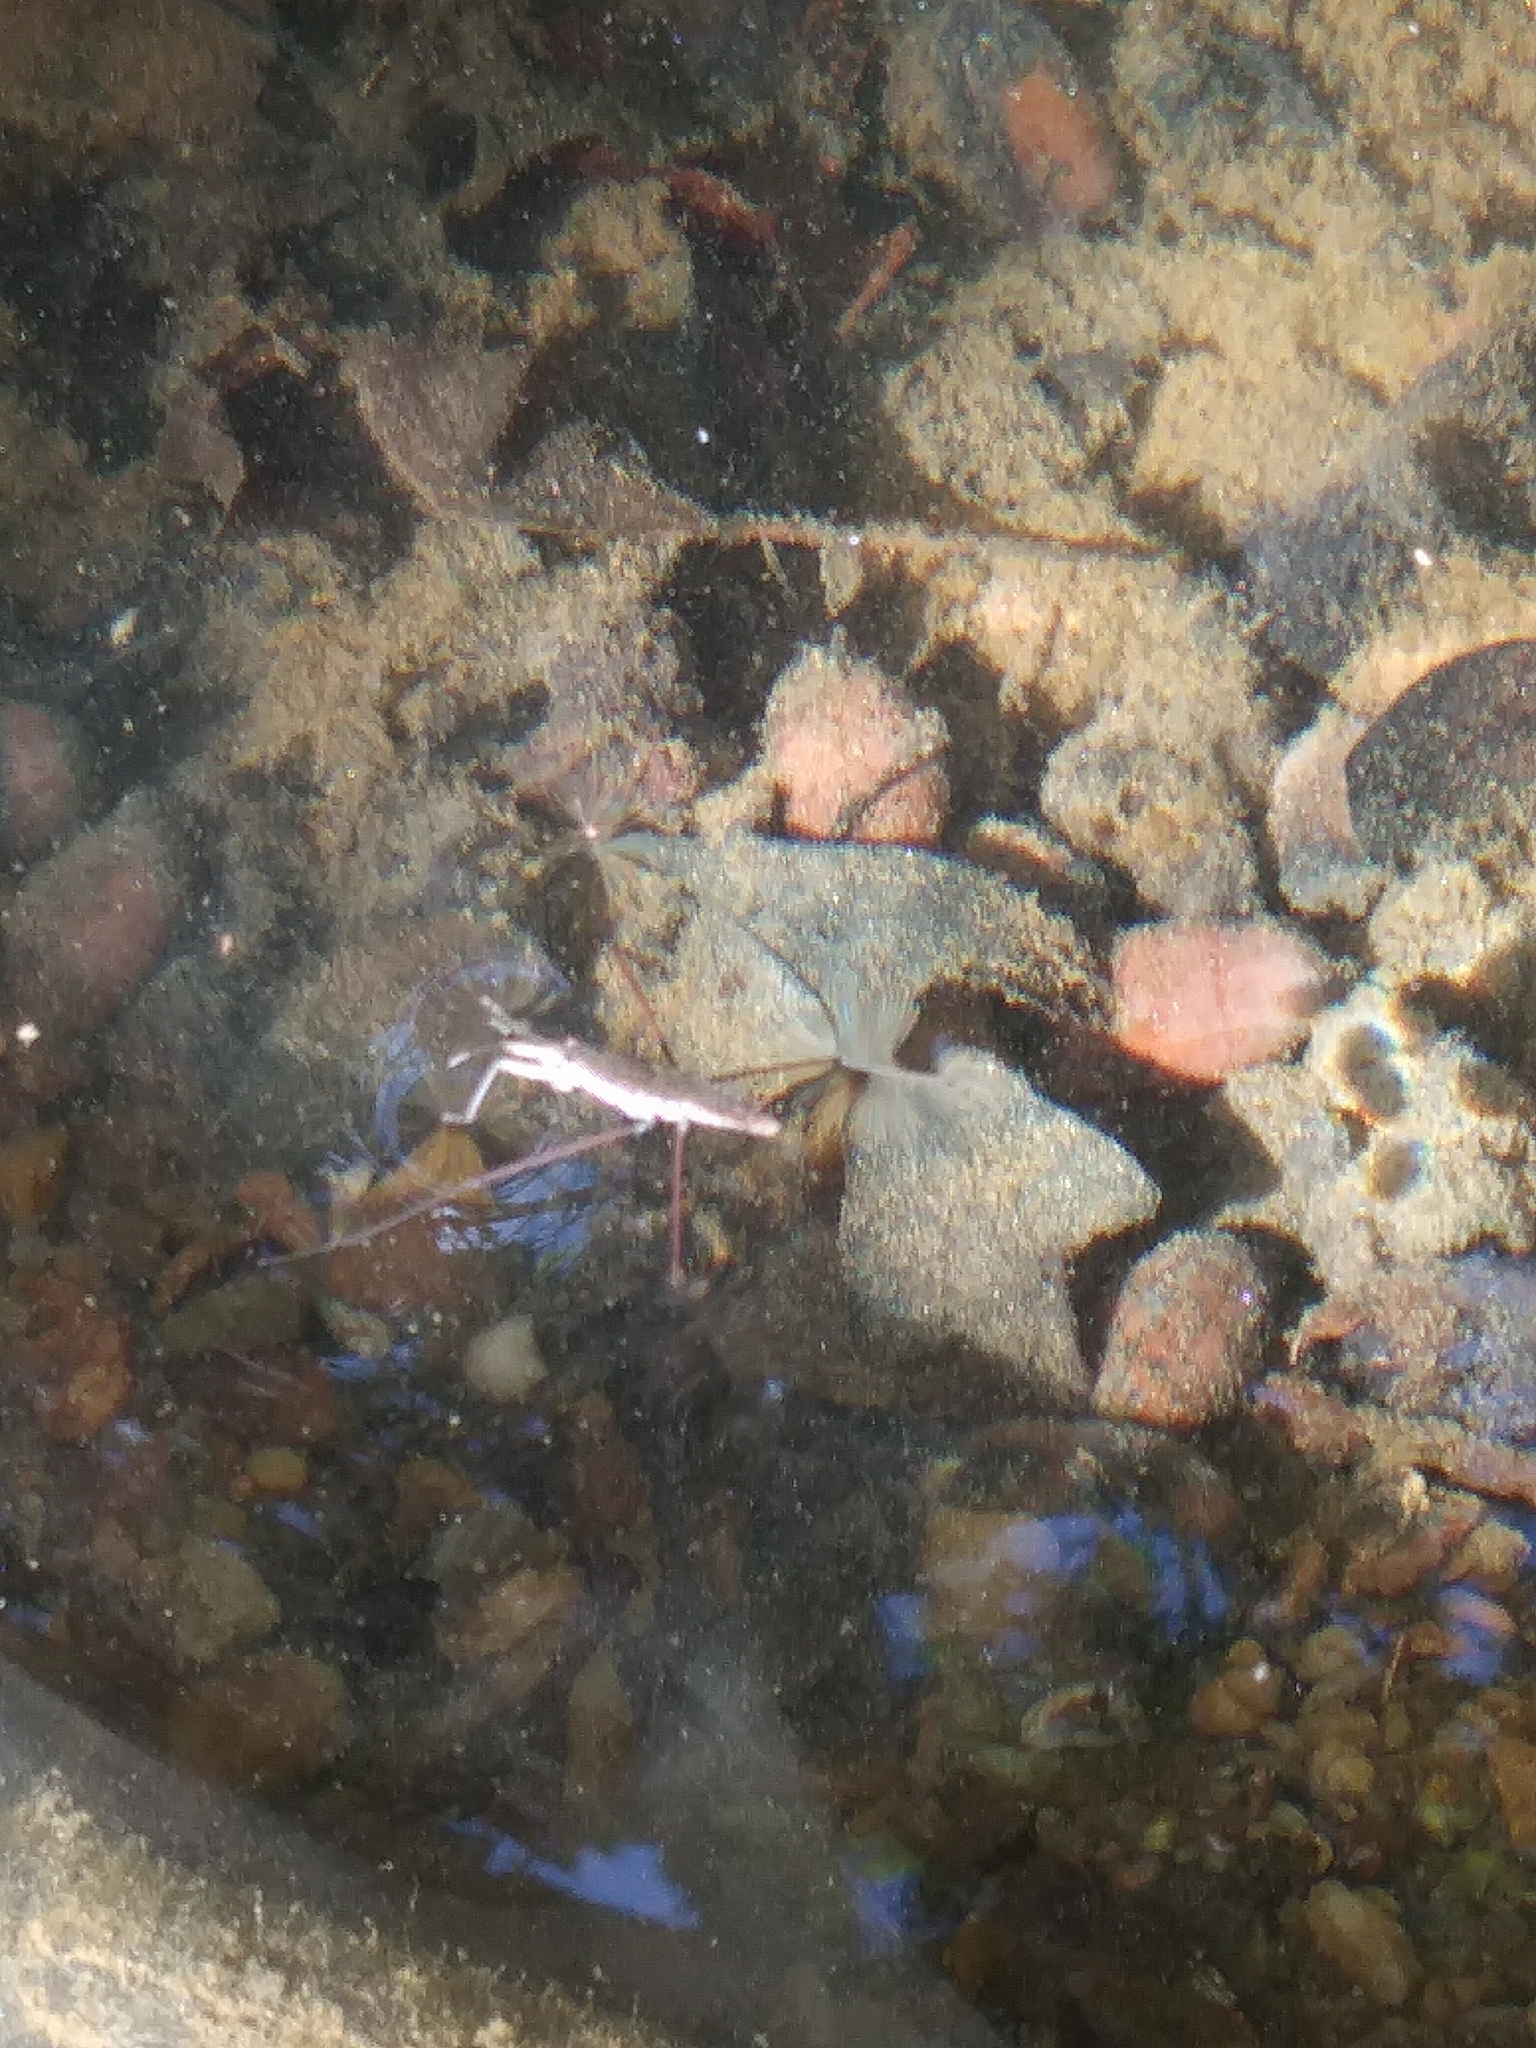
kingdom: Animalia
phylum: Arthropoda
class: Insecta
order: Hemiptera
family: Gerridae
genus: Aquarius
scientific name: Aquarius
